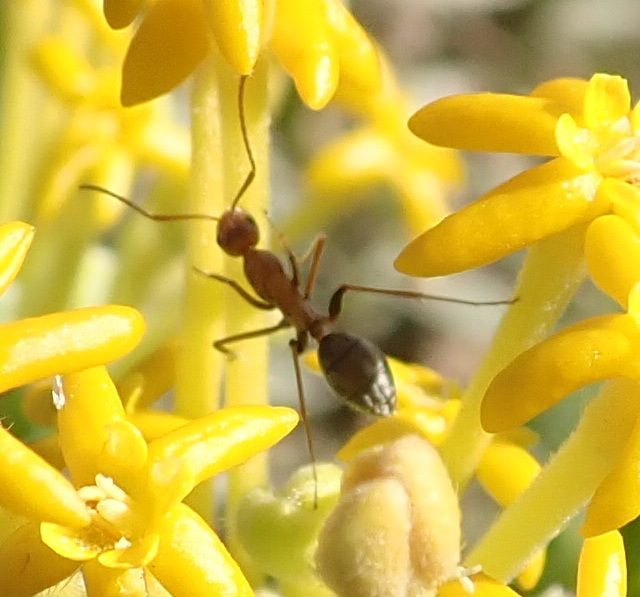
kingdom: Animalia
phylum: Arthropoda
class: Insecta
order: Hymenoptera
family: Formicidae
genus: Camponotus
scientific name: Camponotus vestitus
